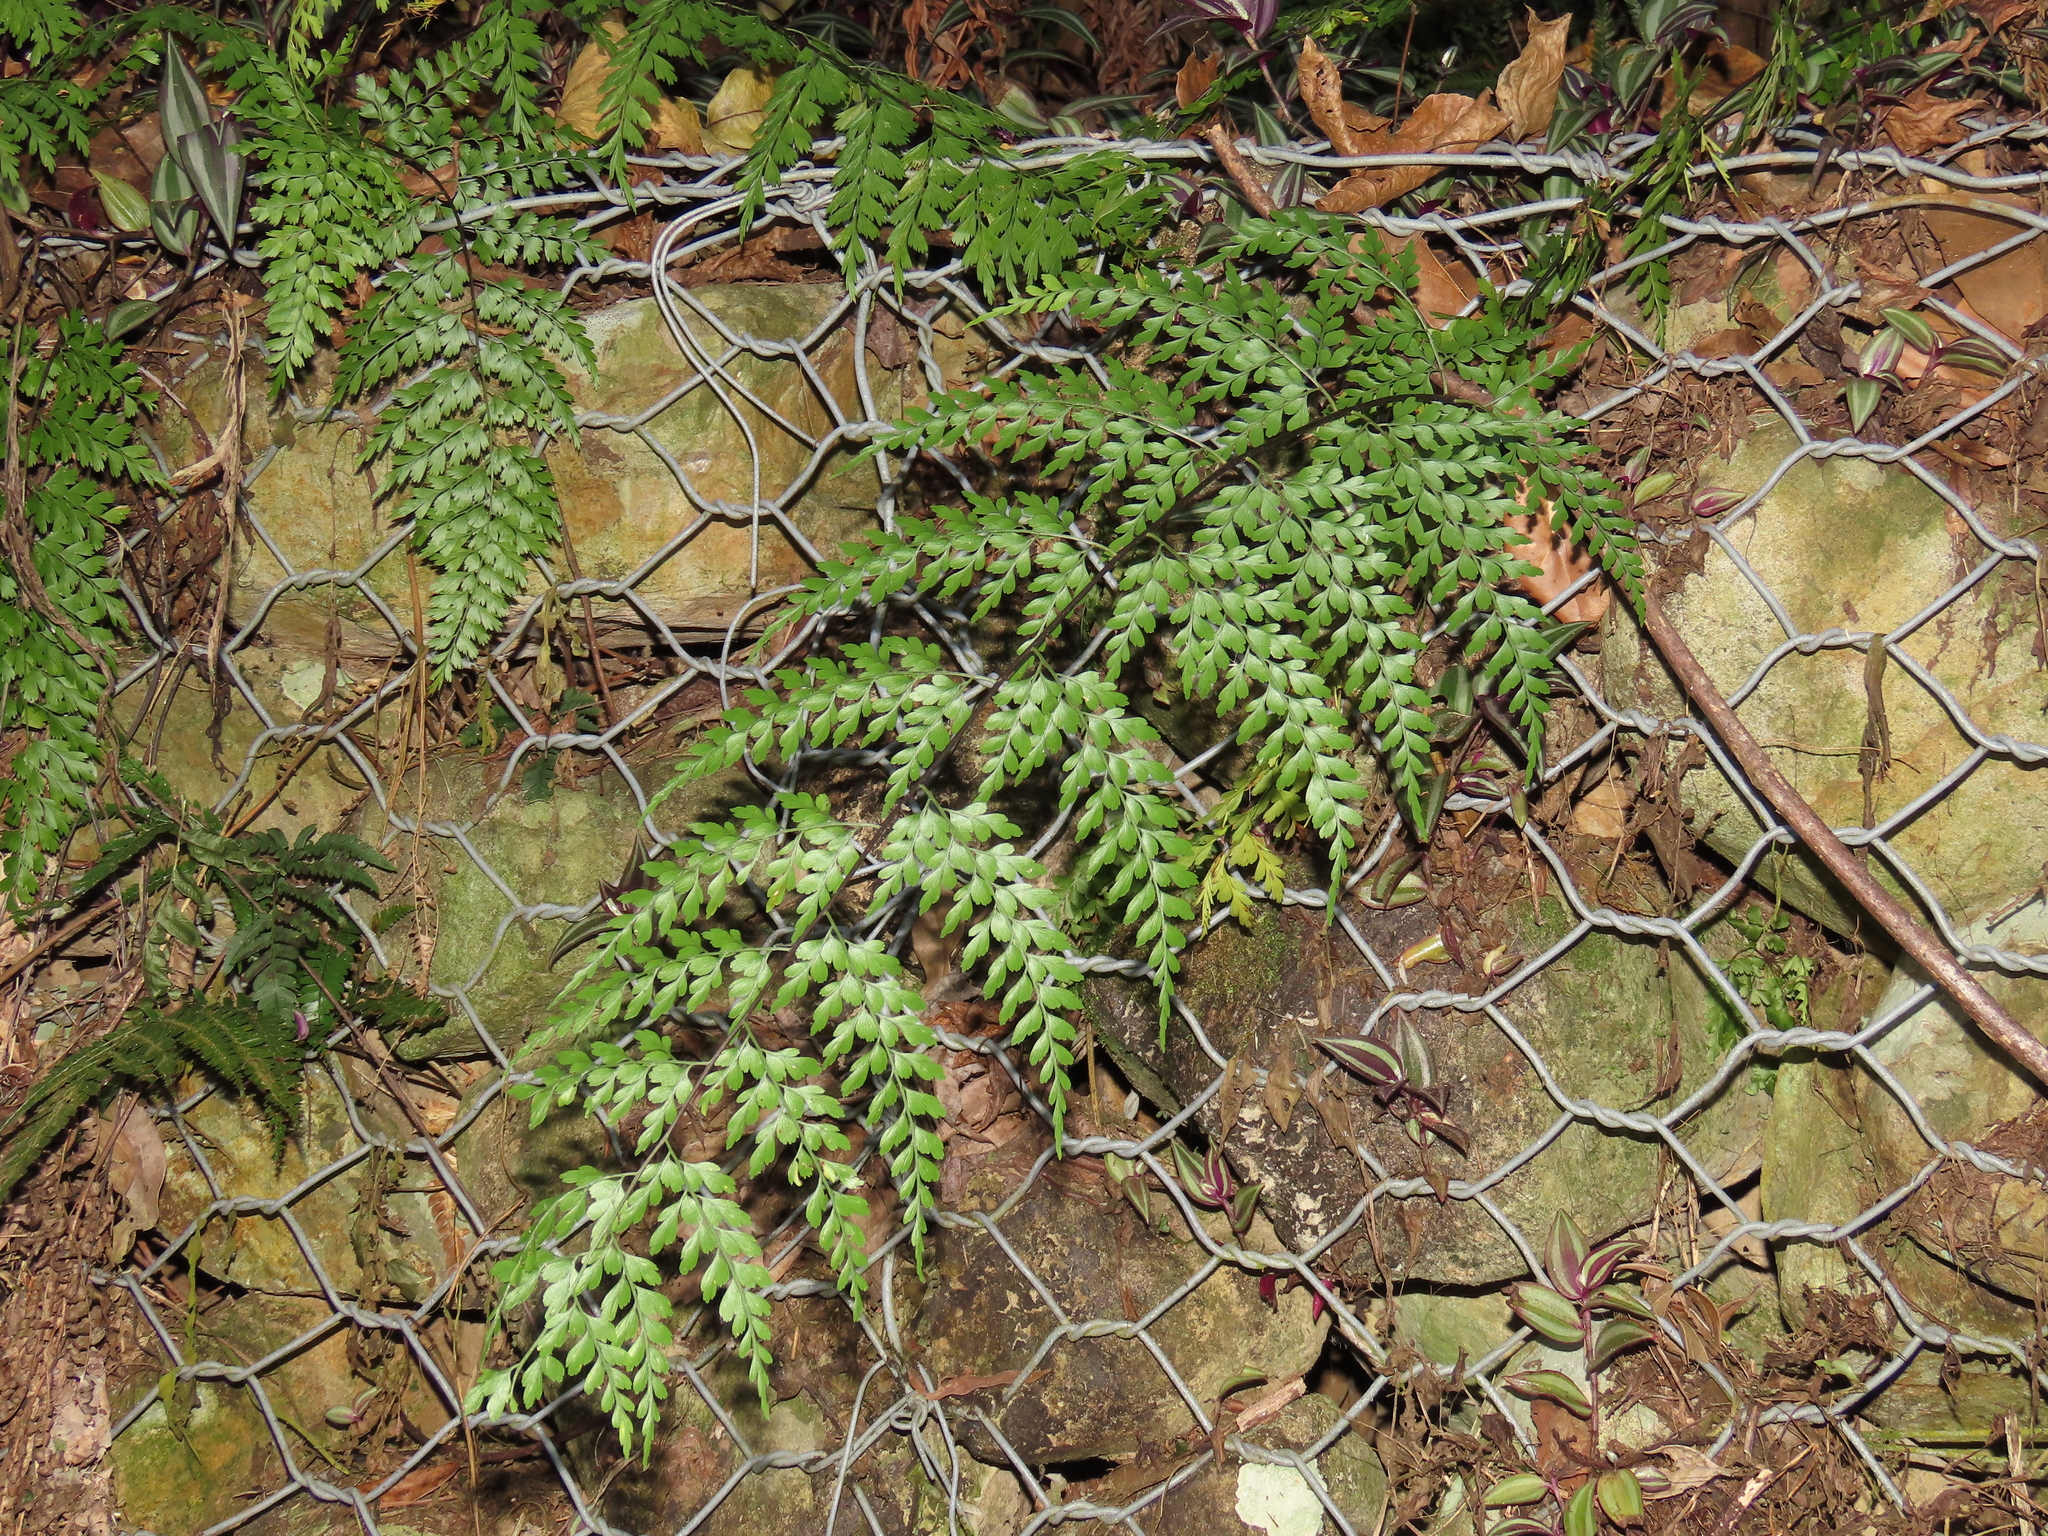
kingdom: Plantae
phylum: Tracheophyta
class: Polypodiopsida
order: Polypodiales
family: Aspleniaceae
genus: Asplenium
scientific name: Asplenium pseudolaserpitiifolium
